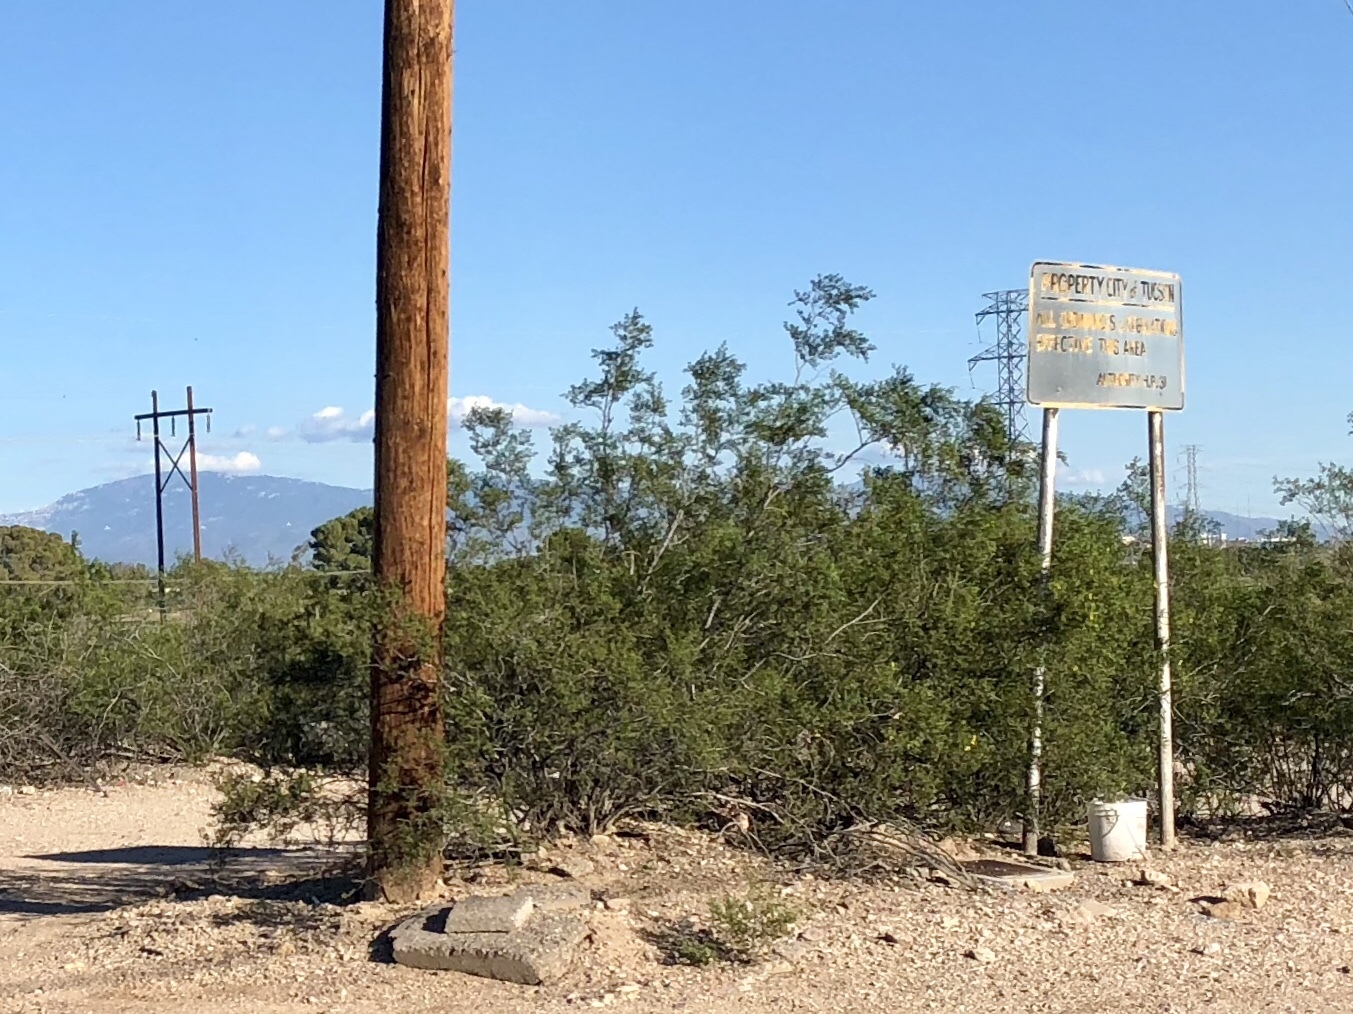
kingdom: Plantae
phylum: Tracheophyta
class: Magnoliopsida
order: Zygophyllales
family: Zygophyllaceae
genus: Larrea
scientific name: Larrea tridentata
